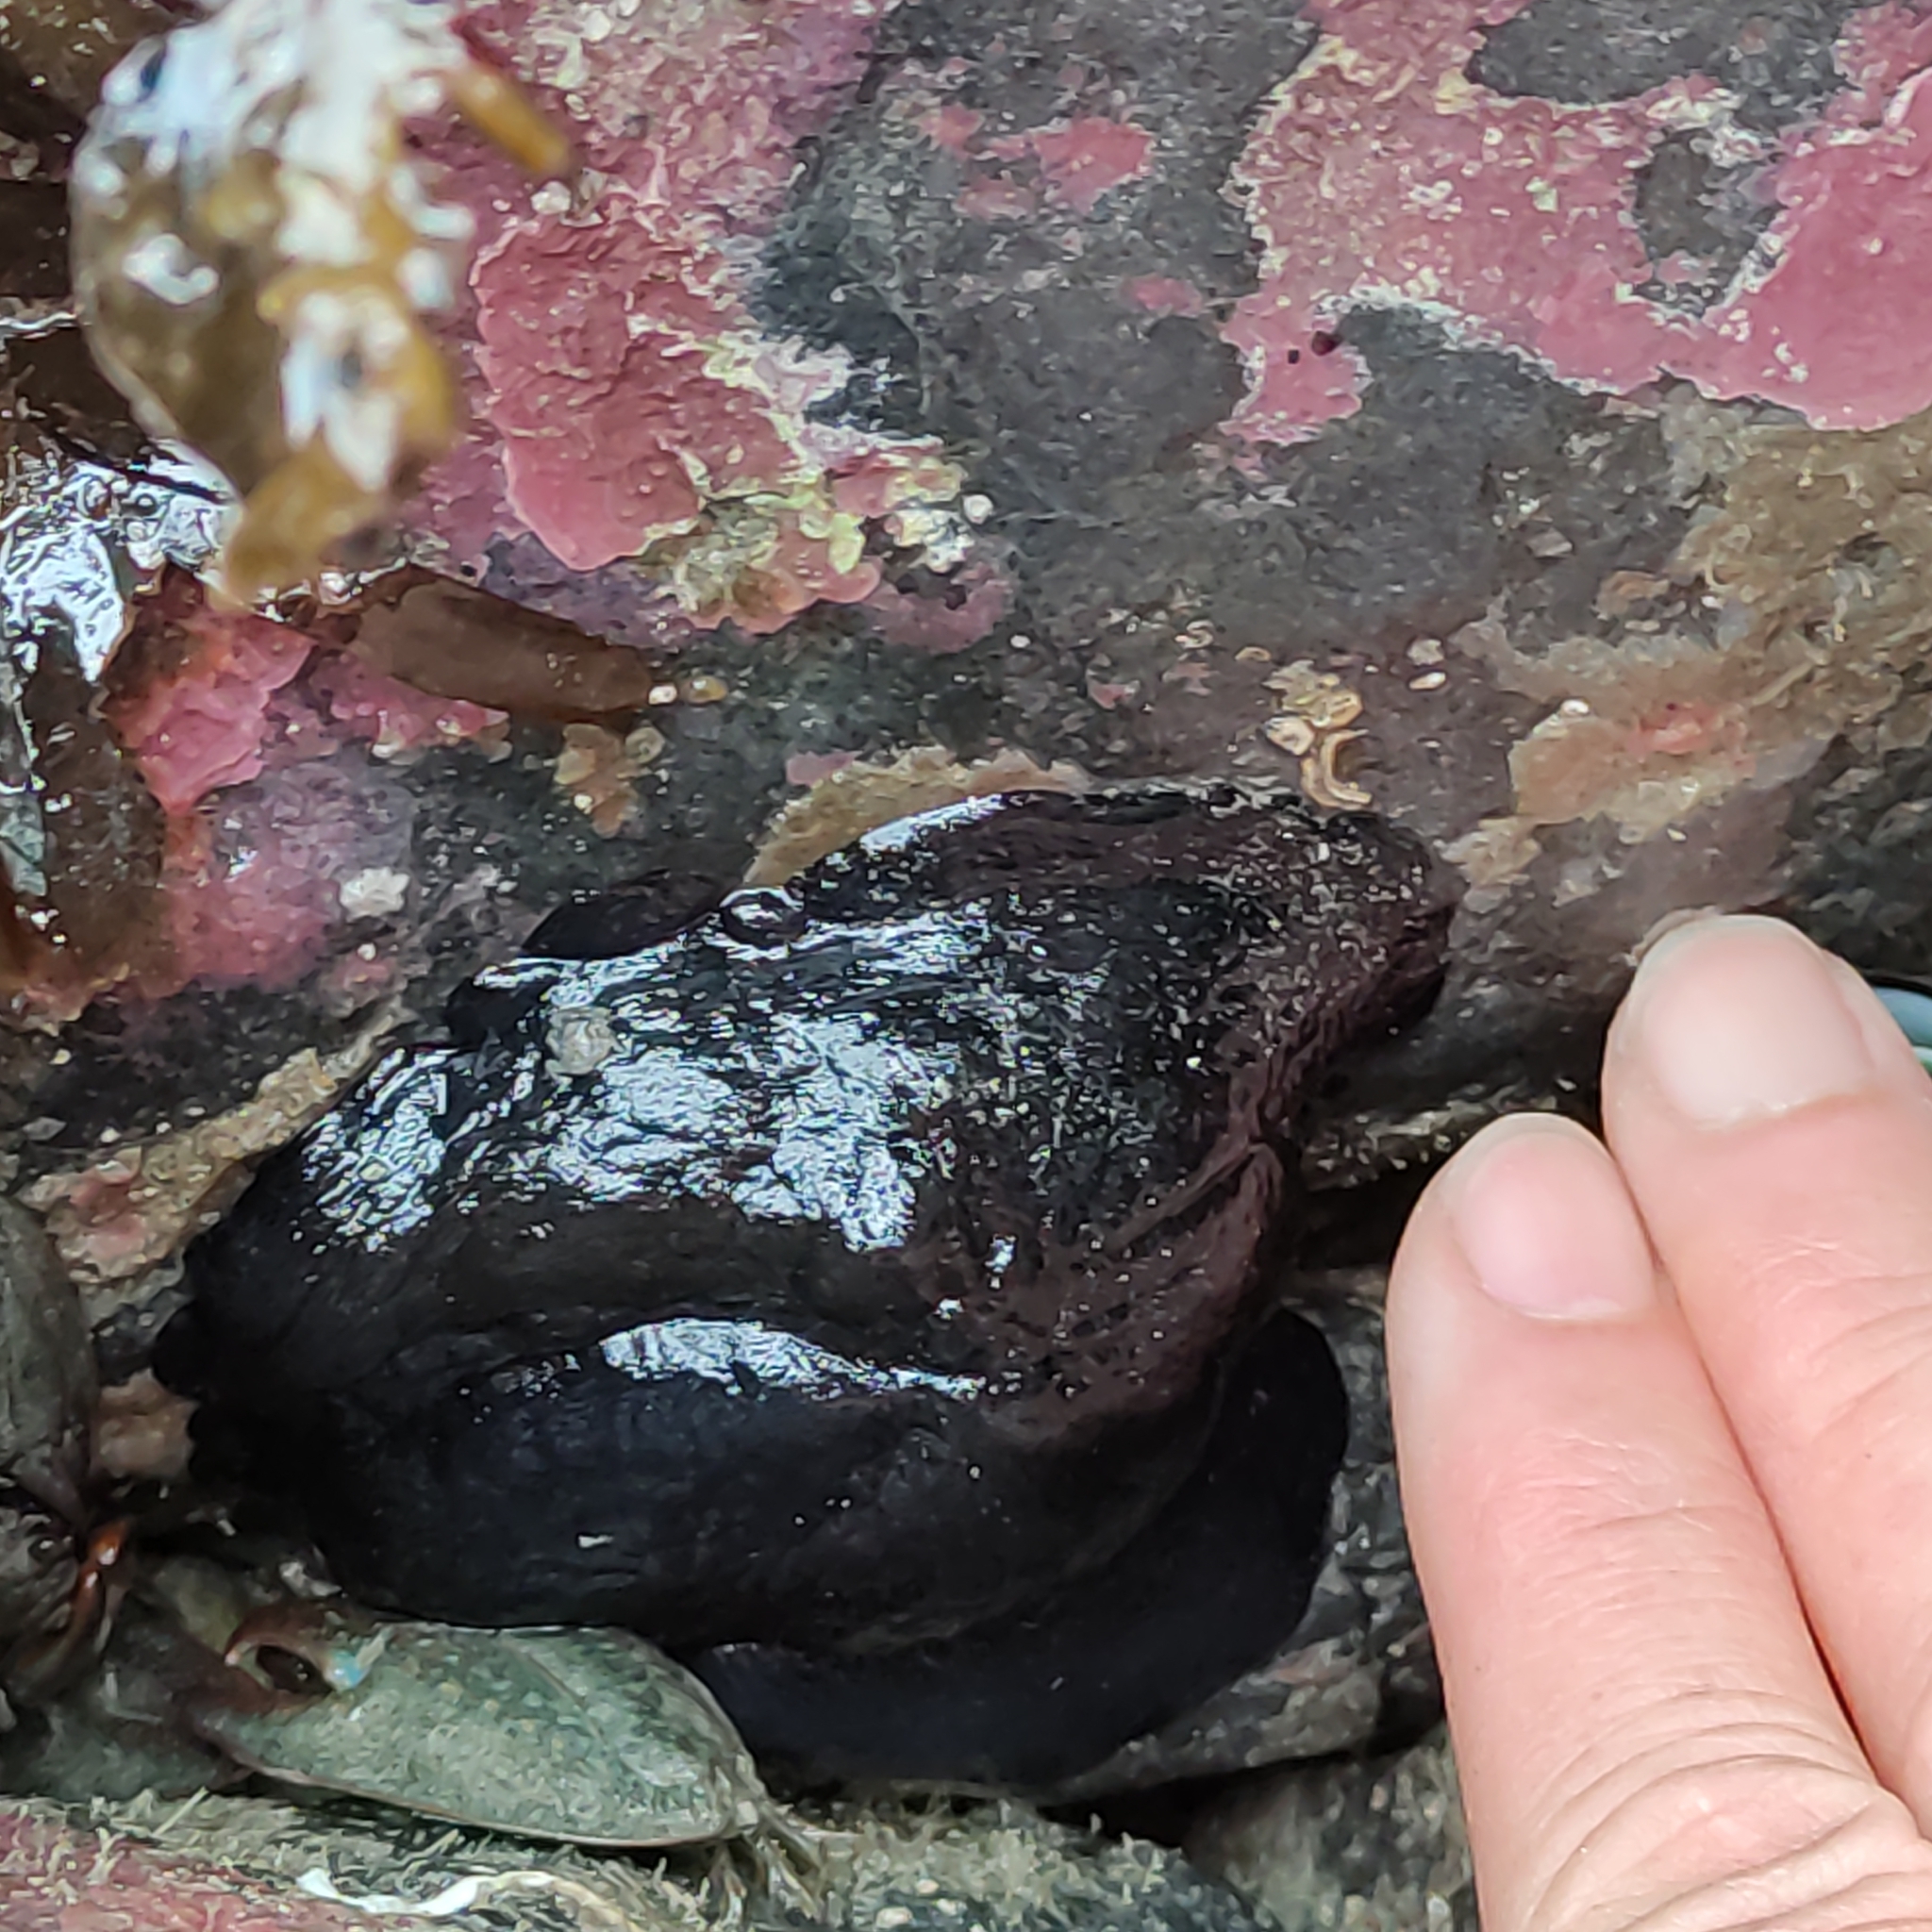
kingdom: Animalia
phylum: Mollusca
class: Gastropoda
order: Lepetellida
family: Fissurellidae
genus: Scutus
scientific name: Scutus breviculus
